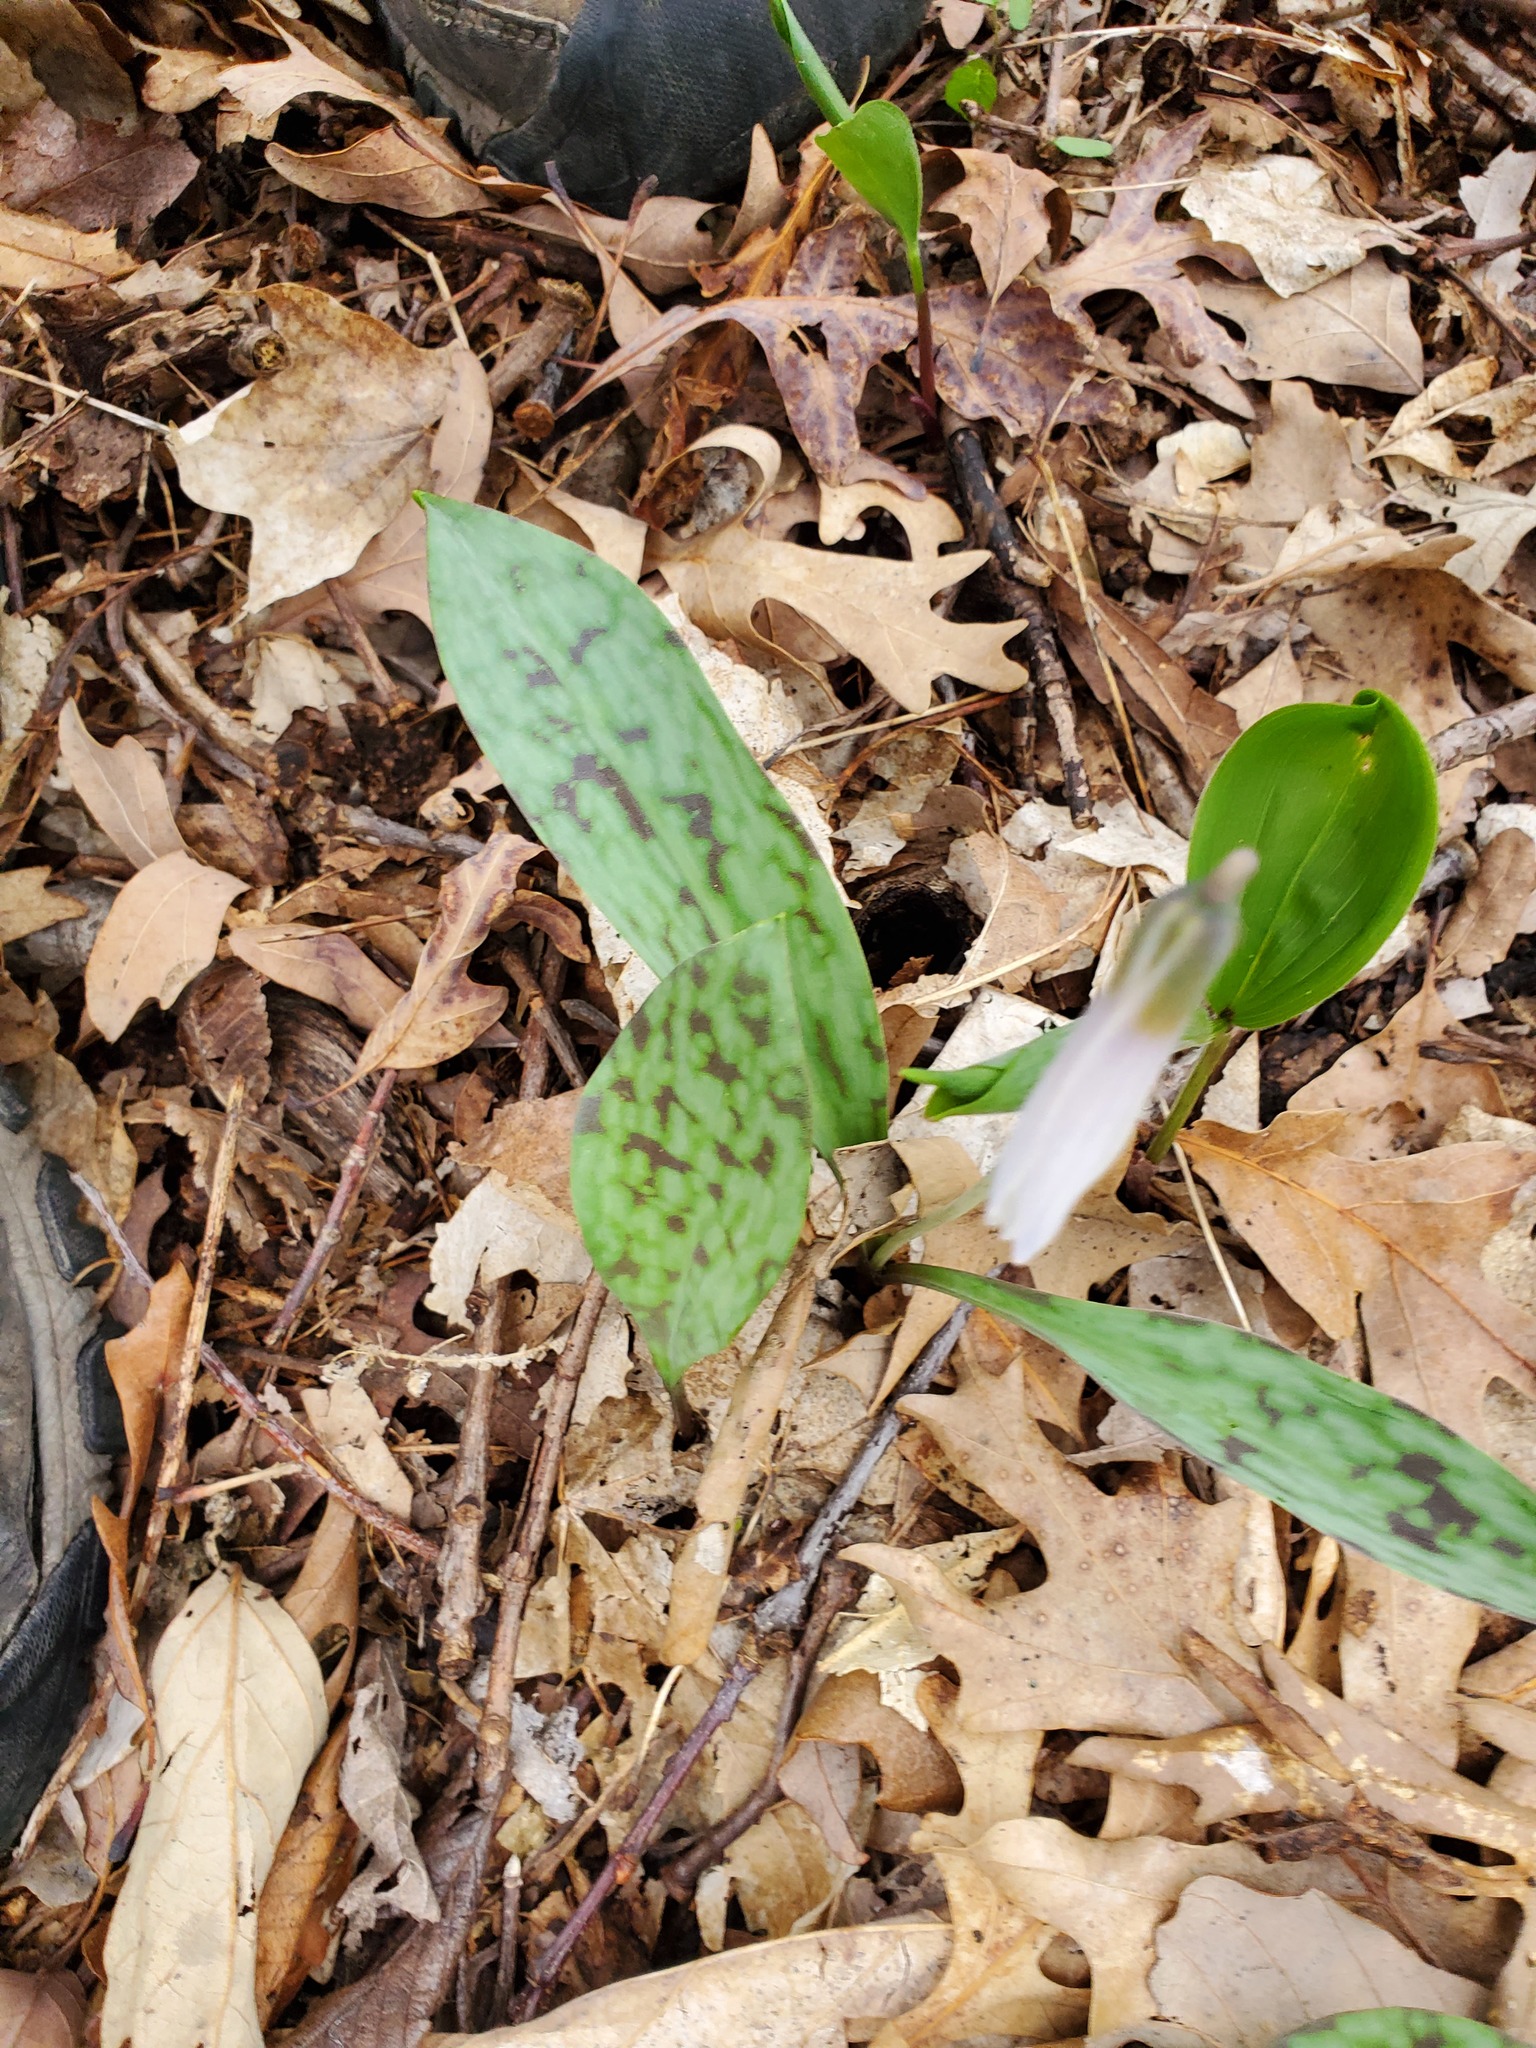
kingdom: Plantae
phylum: Tracheophyta
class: Liliopsida
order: Liliales
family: Liliaceae
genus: Erythronium
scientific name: Erythronium albidum
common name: White trout-lily
